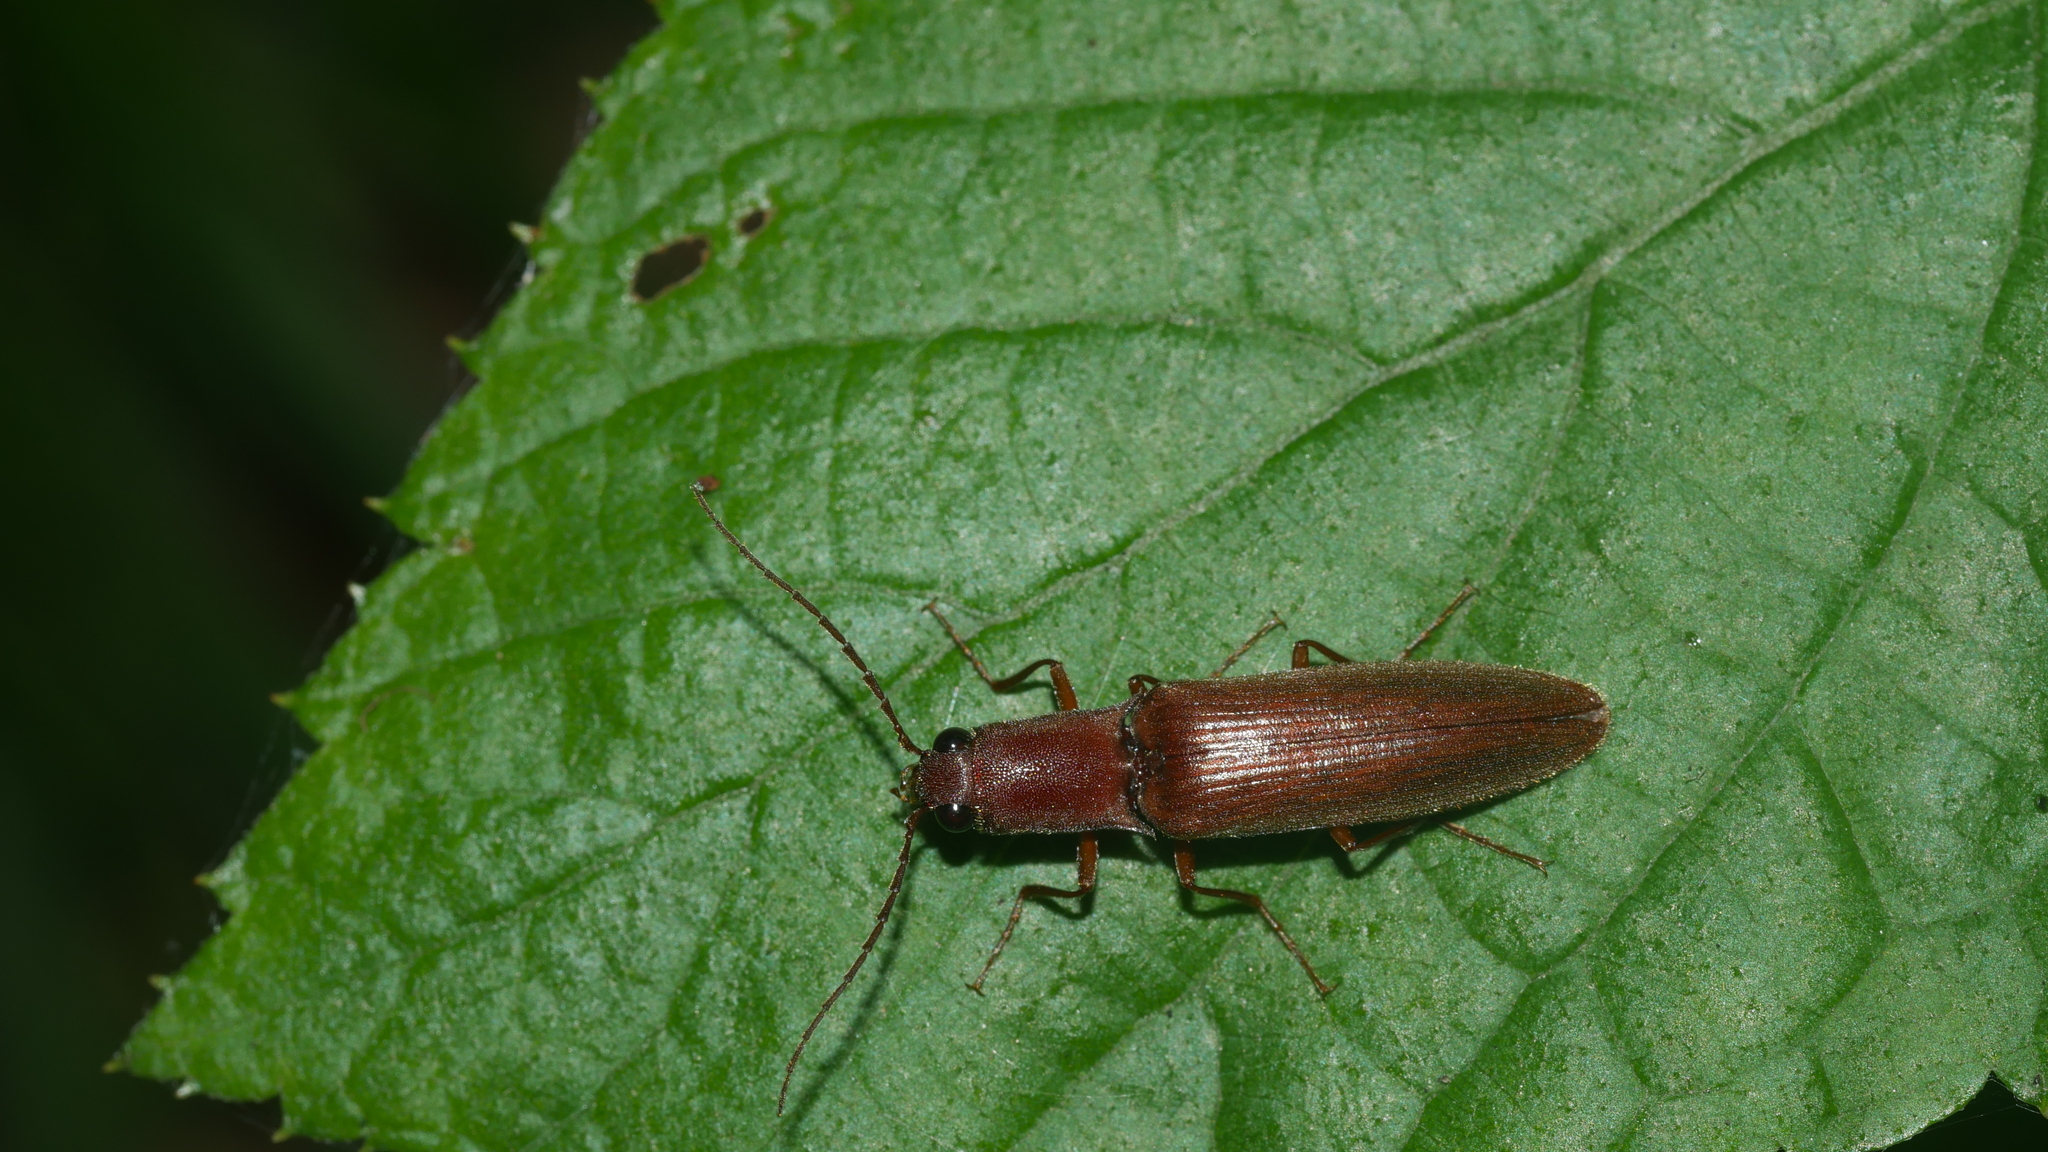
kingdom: Animalia
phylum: Arthropoda
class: Insecta
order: Coleoptera
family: Elateridae
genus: Proludius
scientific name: Proludius pyrros
